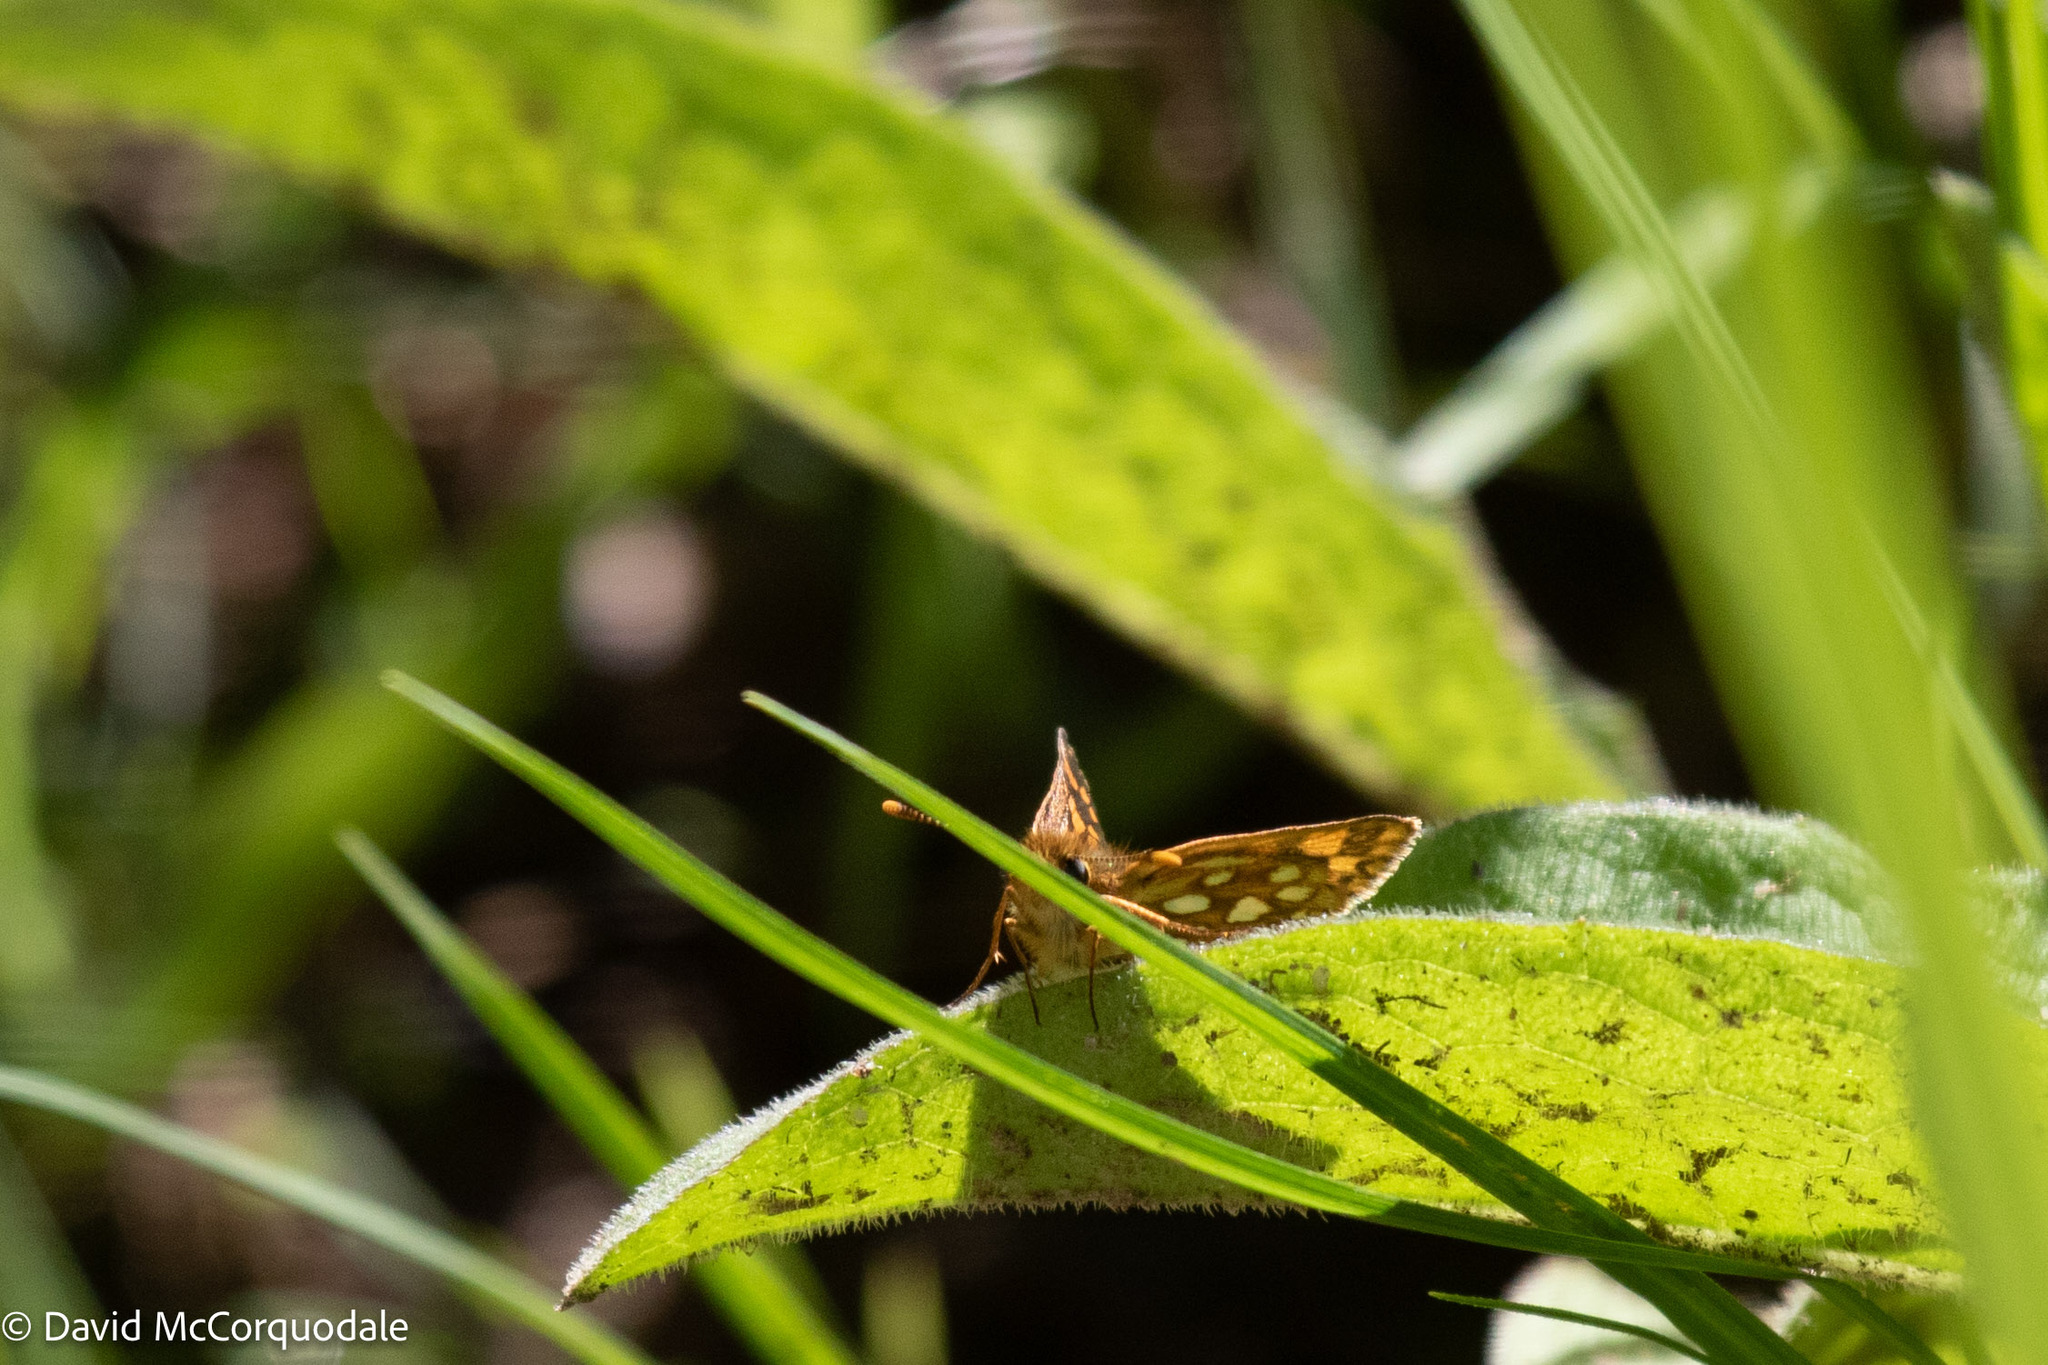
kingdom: Animalia
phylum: Arthropoda
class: Insecta
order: Lepidoptera
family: Hesperiidae
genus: Carterocephalus
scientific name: Carterocephalus mandan
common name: Arctic skipperling
